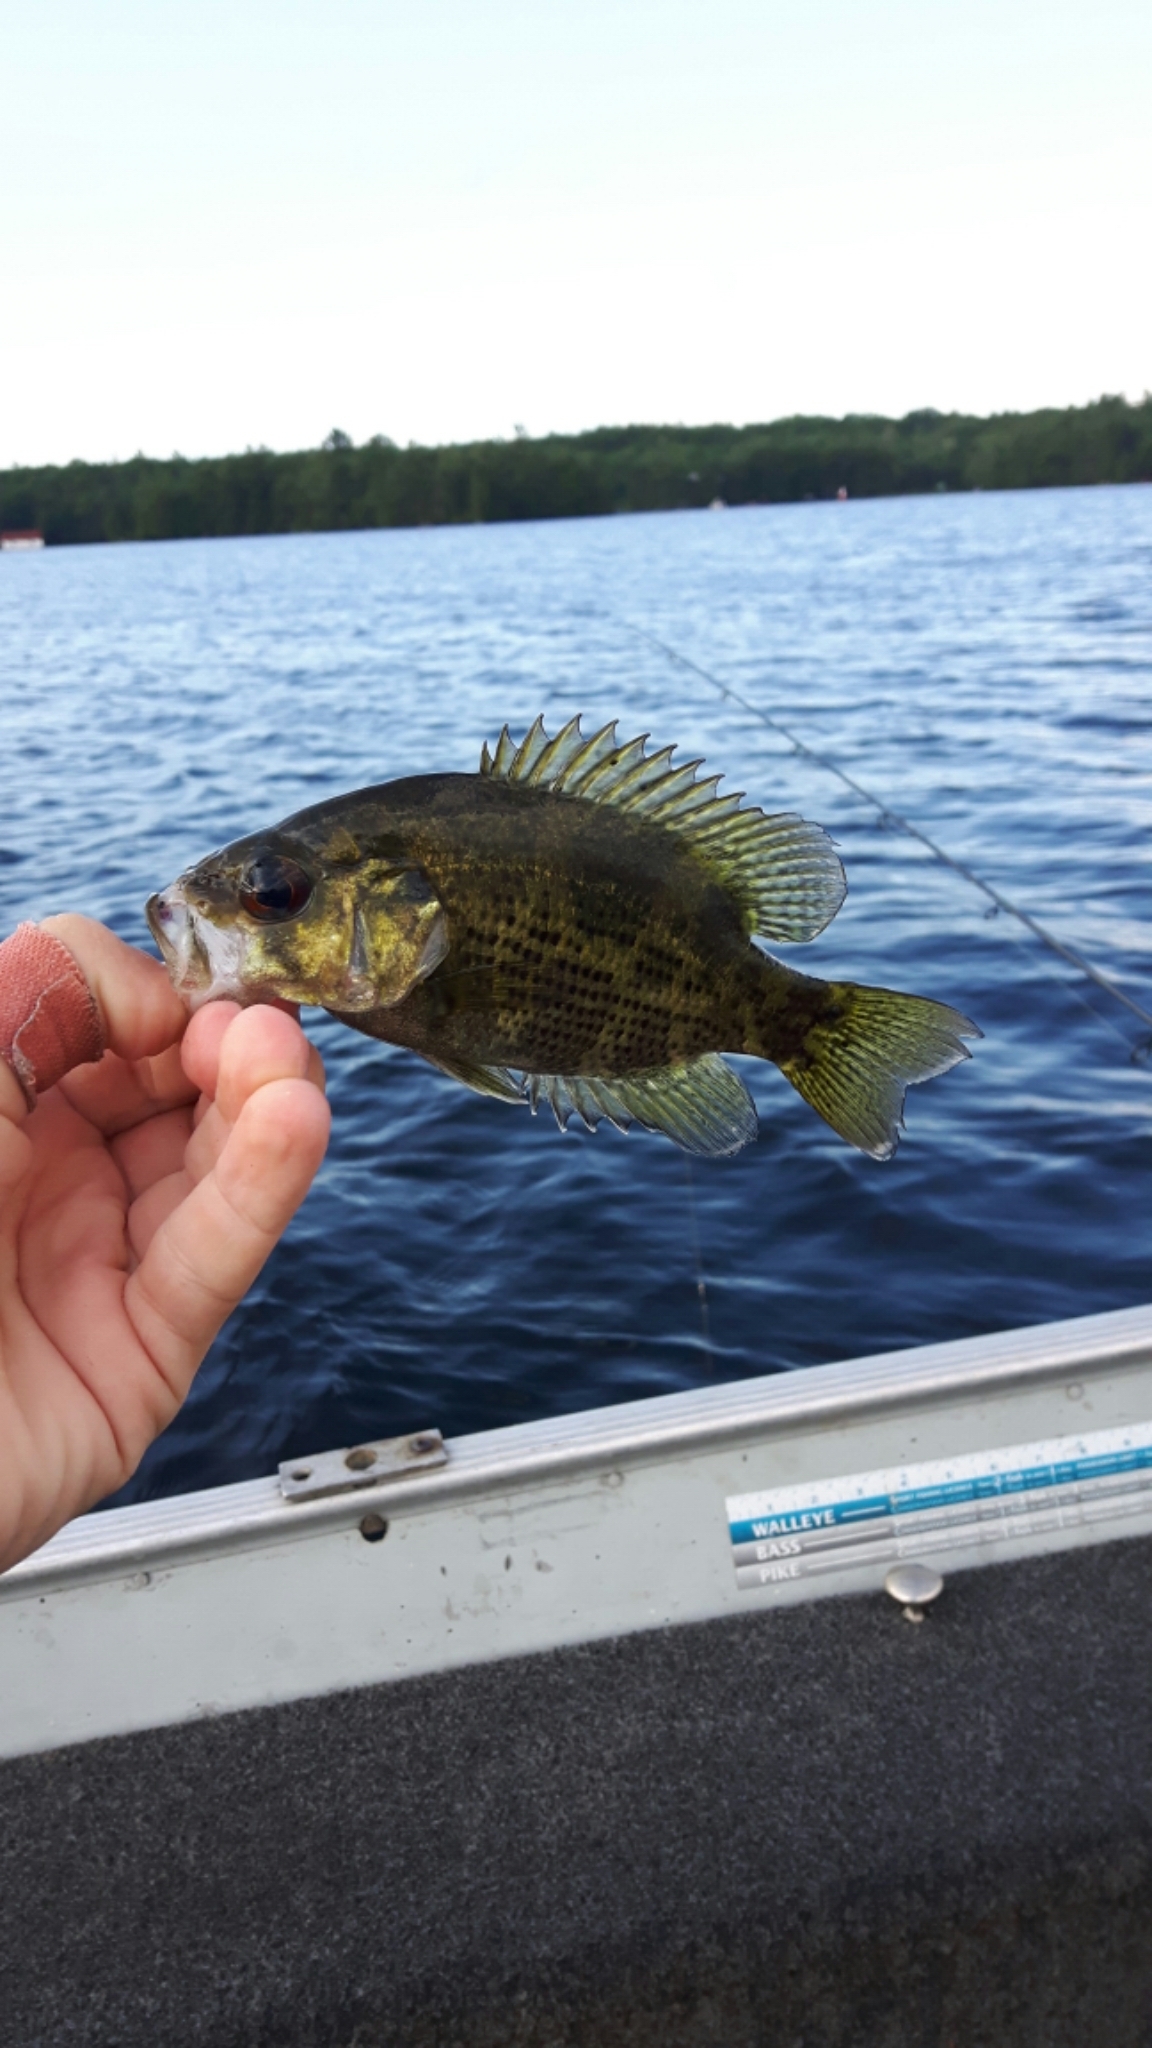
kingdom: Animalia
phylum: Chordata
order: Perciformes
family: Centrarchidae
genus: Ambloplites
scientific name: Ambloplites rupestris
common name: Rock bass
